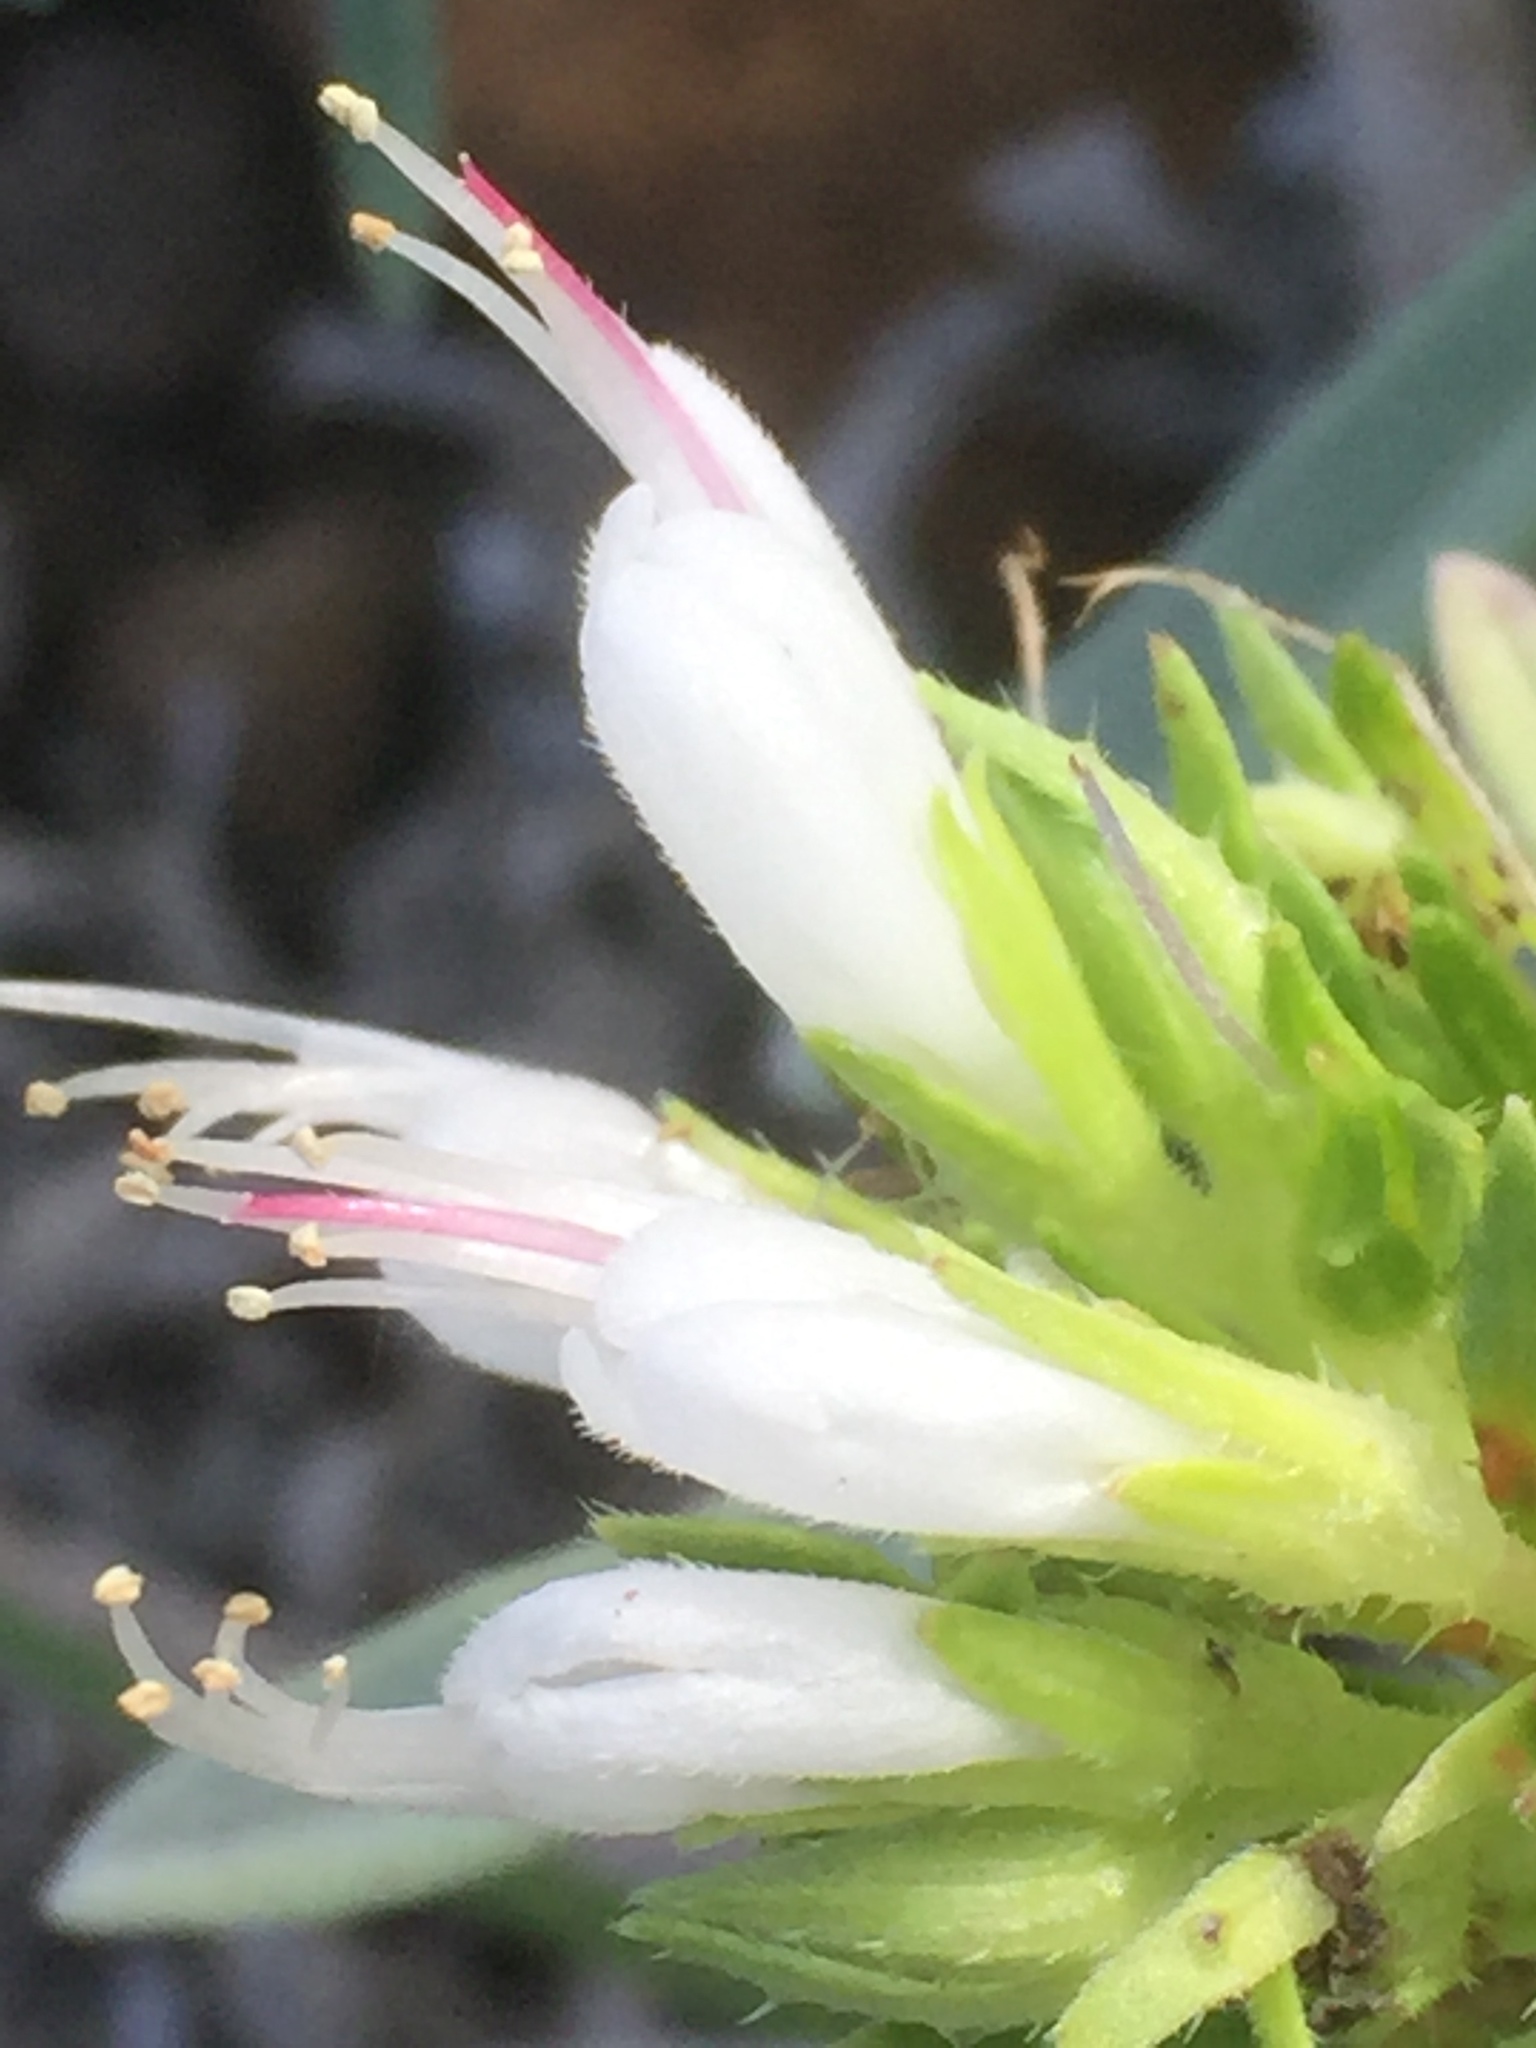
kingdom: Plantae
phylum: Tracheophyta
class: Magnoliopsida
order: Boraginales
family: Boraginaceae
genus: Echium
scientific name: Echium brevirame
